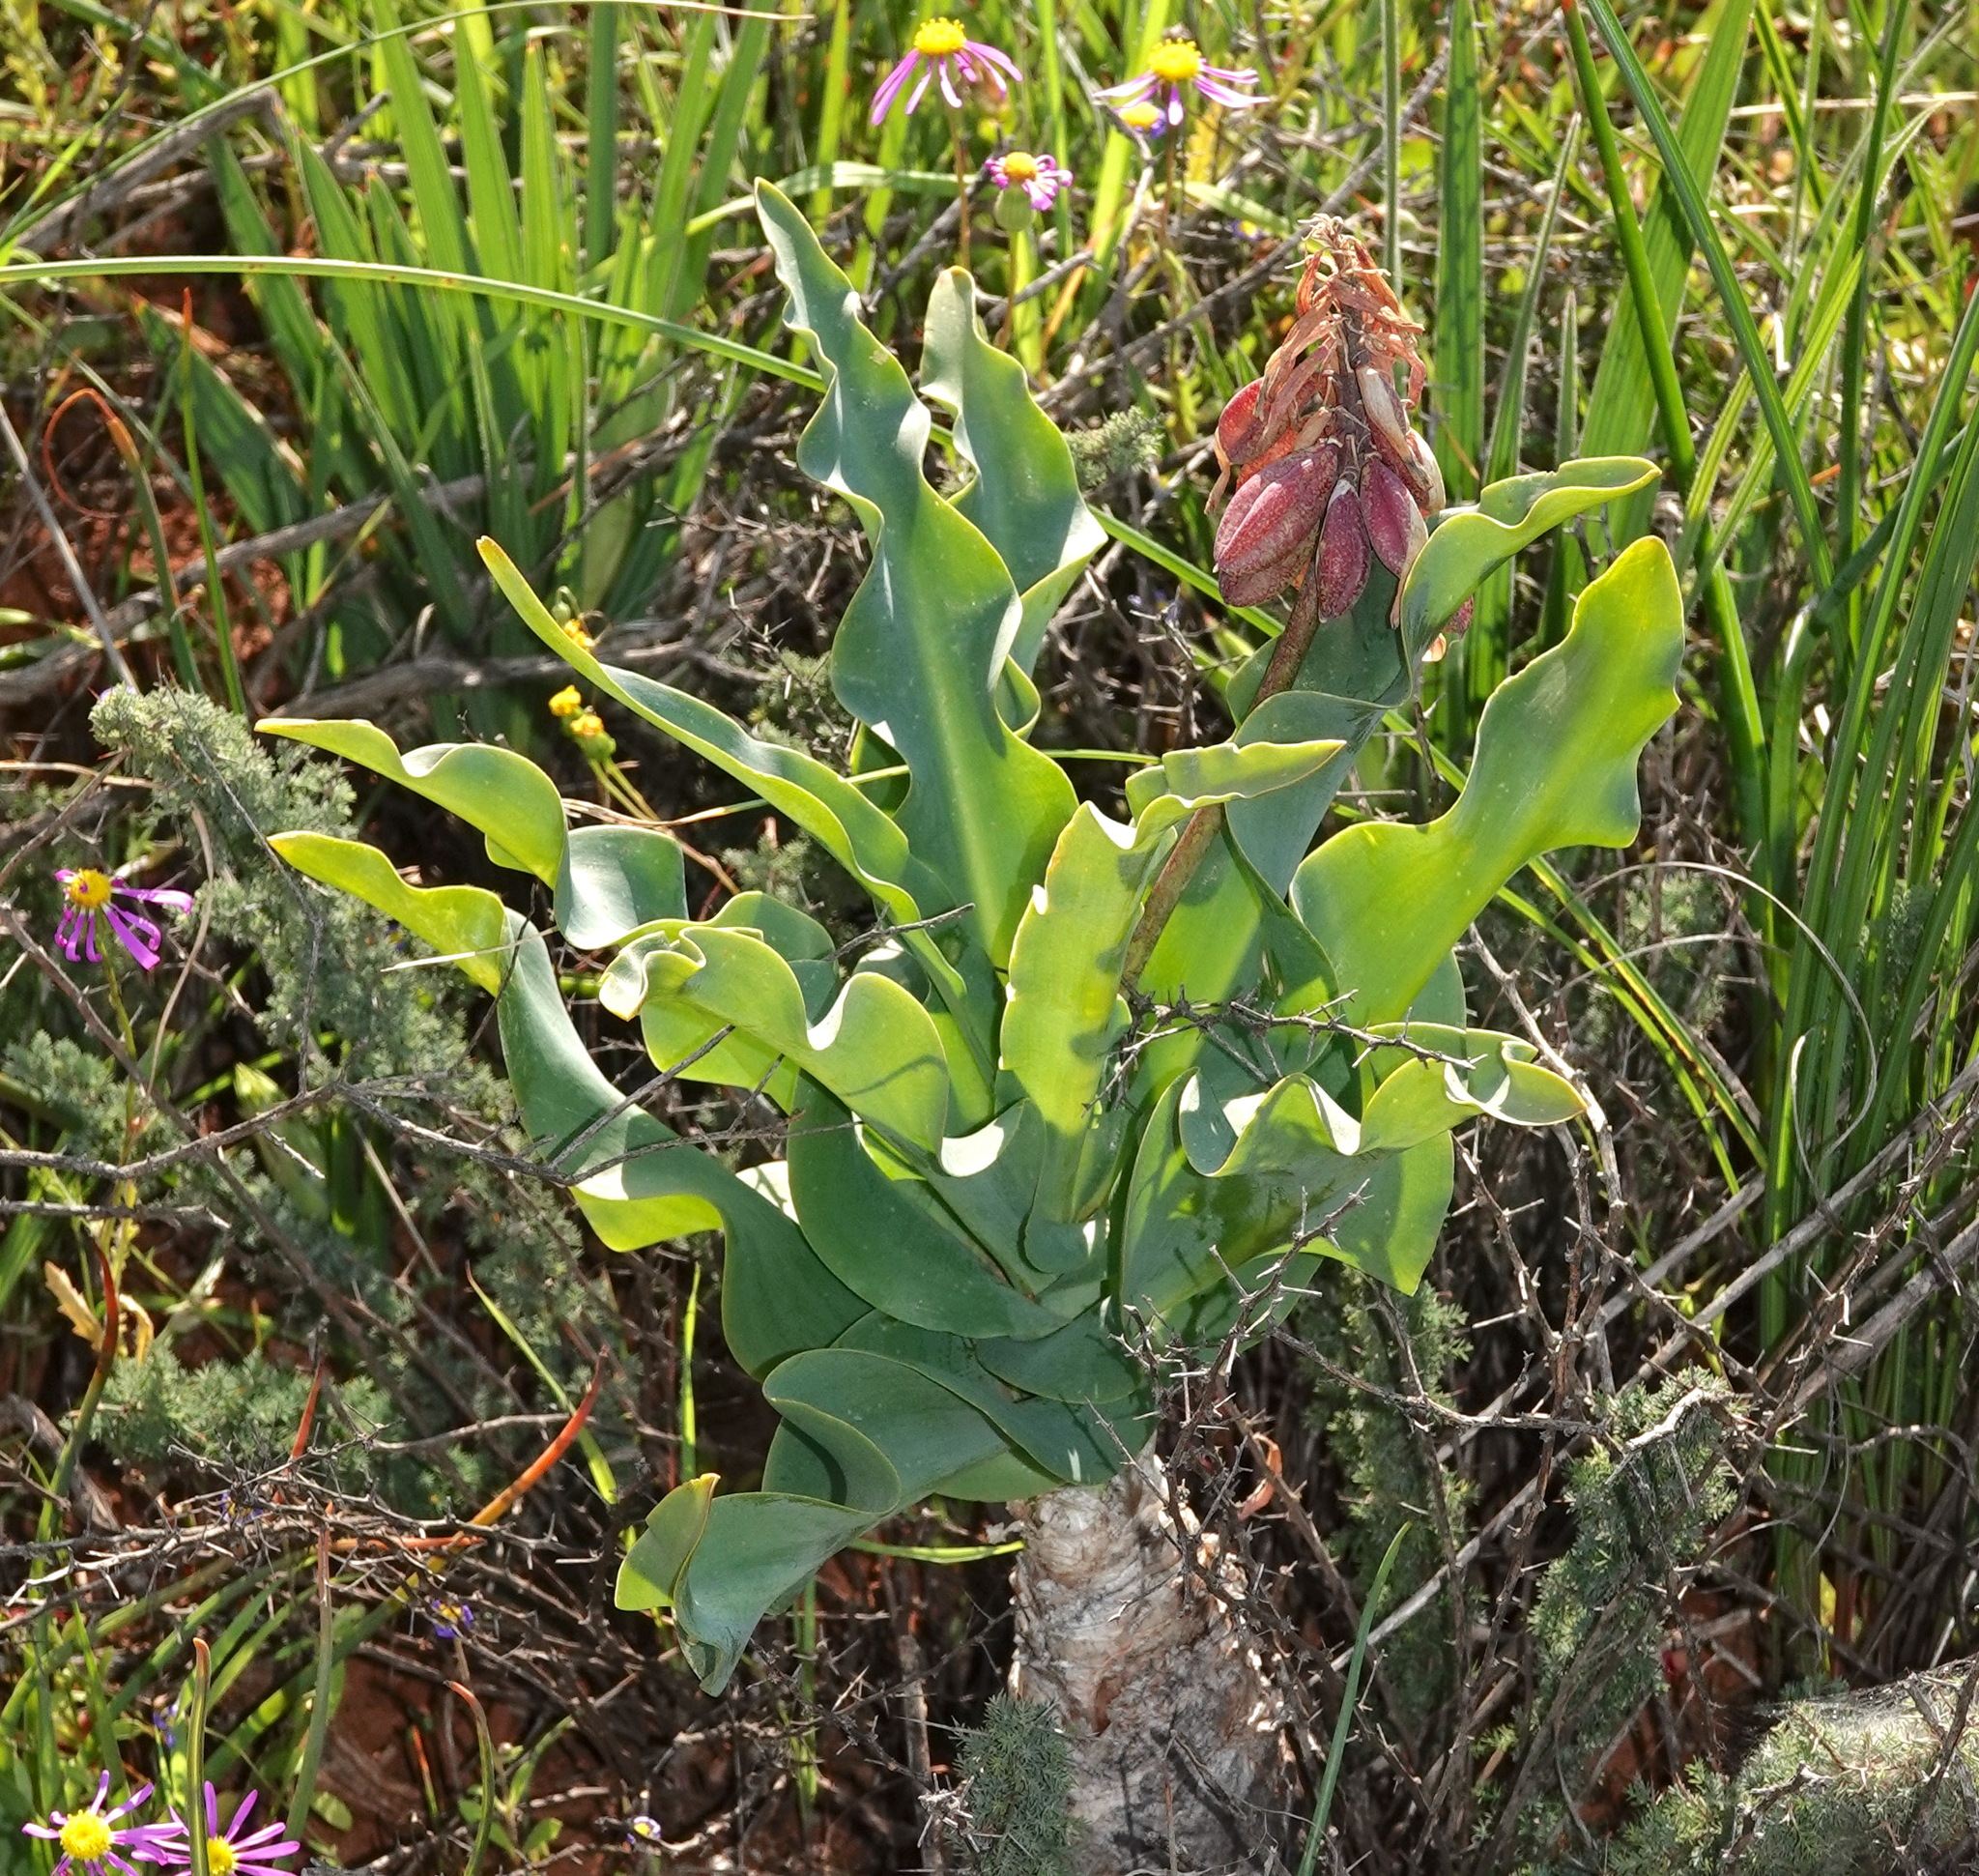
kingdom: Plantae
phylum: Tracheophyta
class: Liliopsida
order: Asparagales
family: Asparagaceae
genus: Veltheimia
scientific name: Veltheimia capensis
